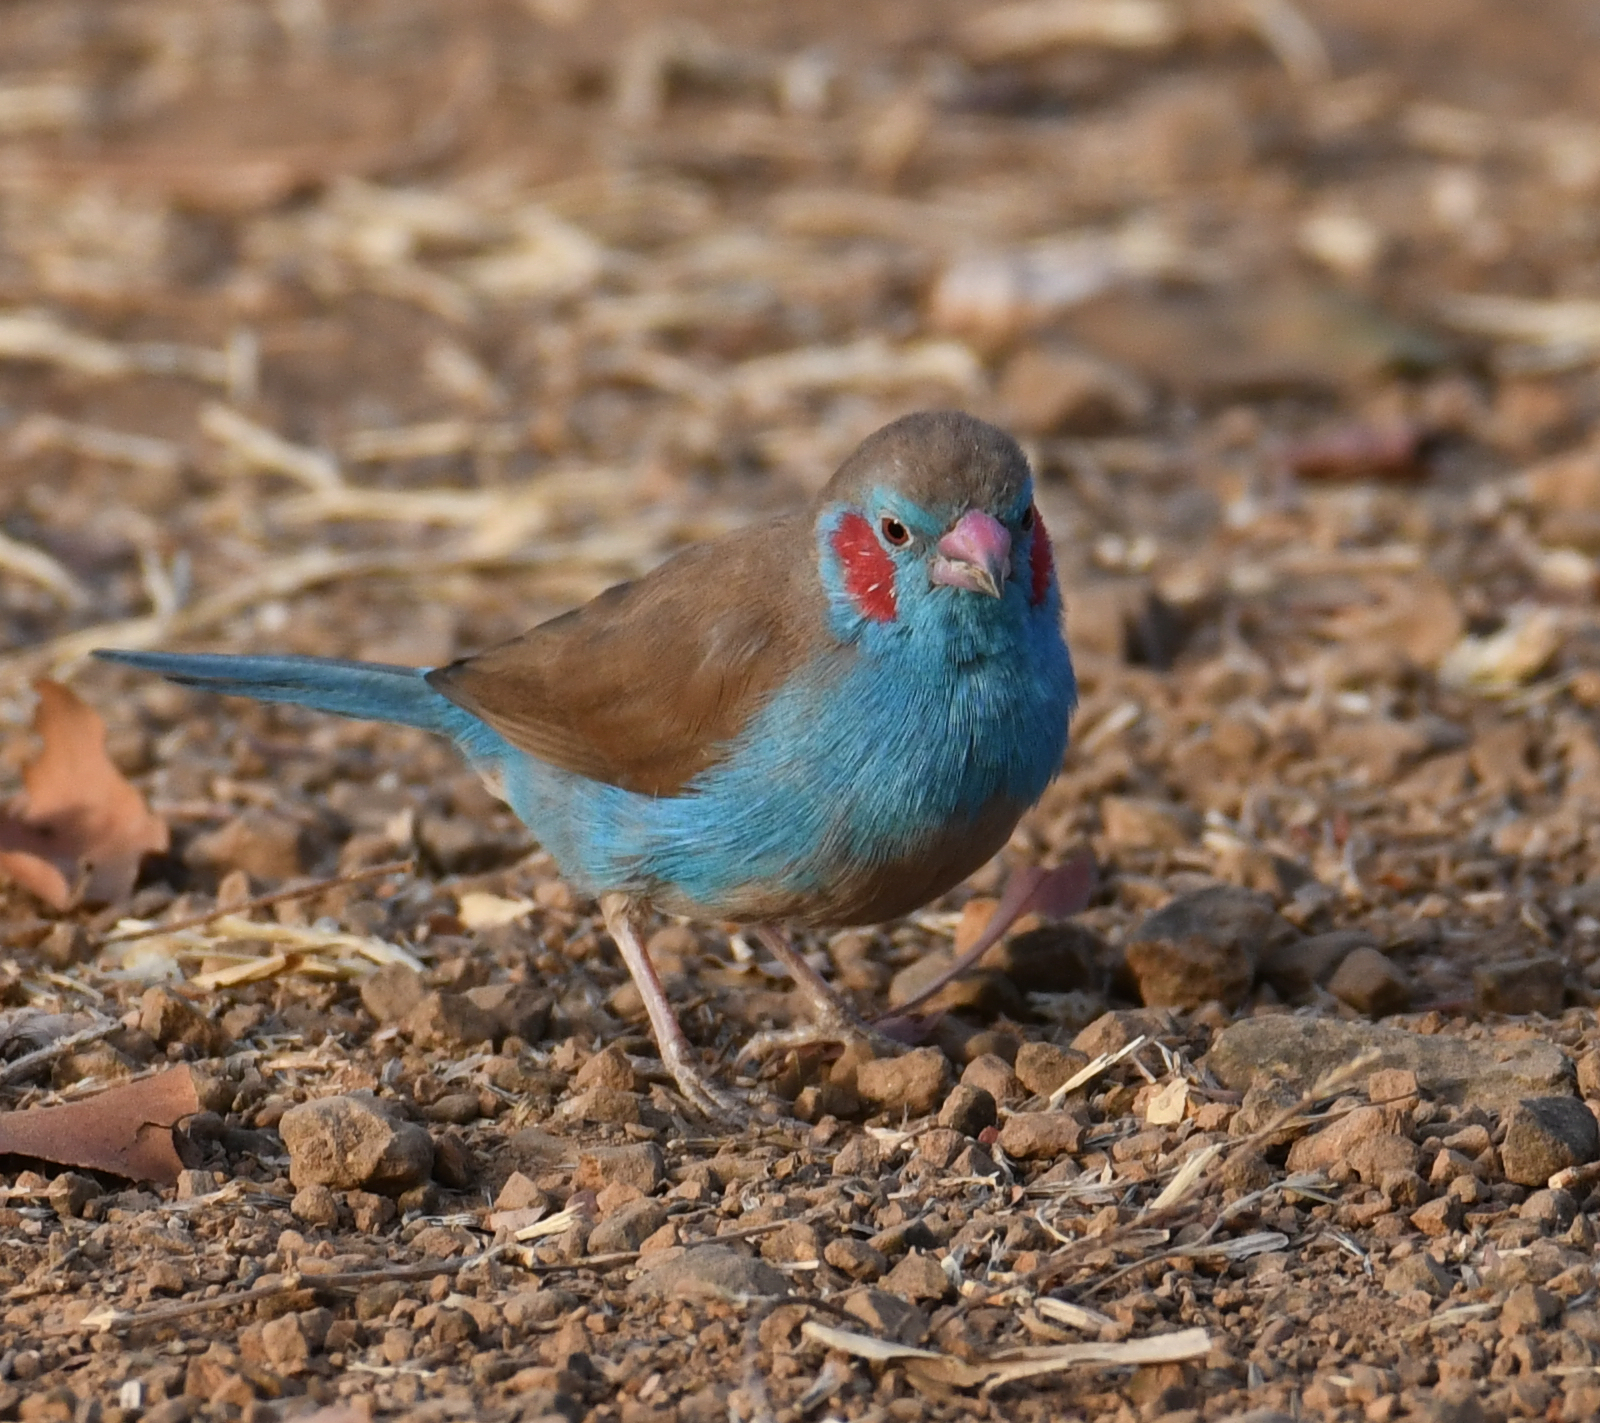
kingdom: Animalia
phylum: Chordata
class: Aves
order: Passeriformes
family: Estrildidae
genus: Uraeginthus
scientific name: Uraeginthus bengalus
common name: Red-cheeked cordon-bleu
